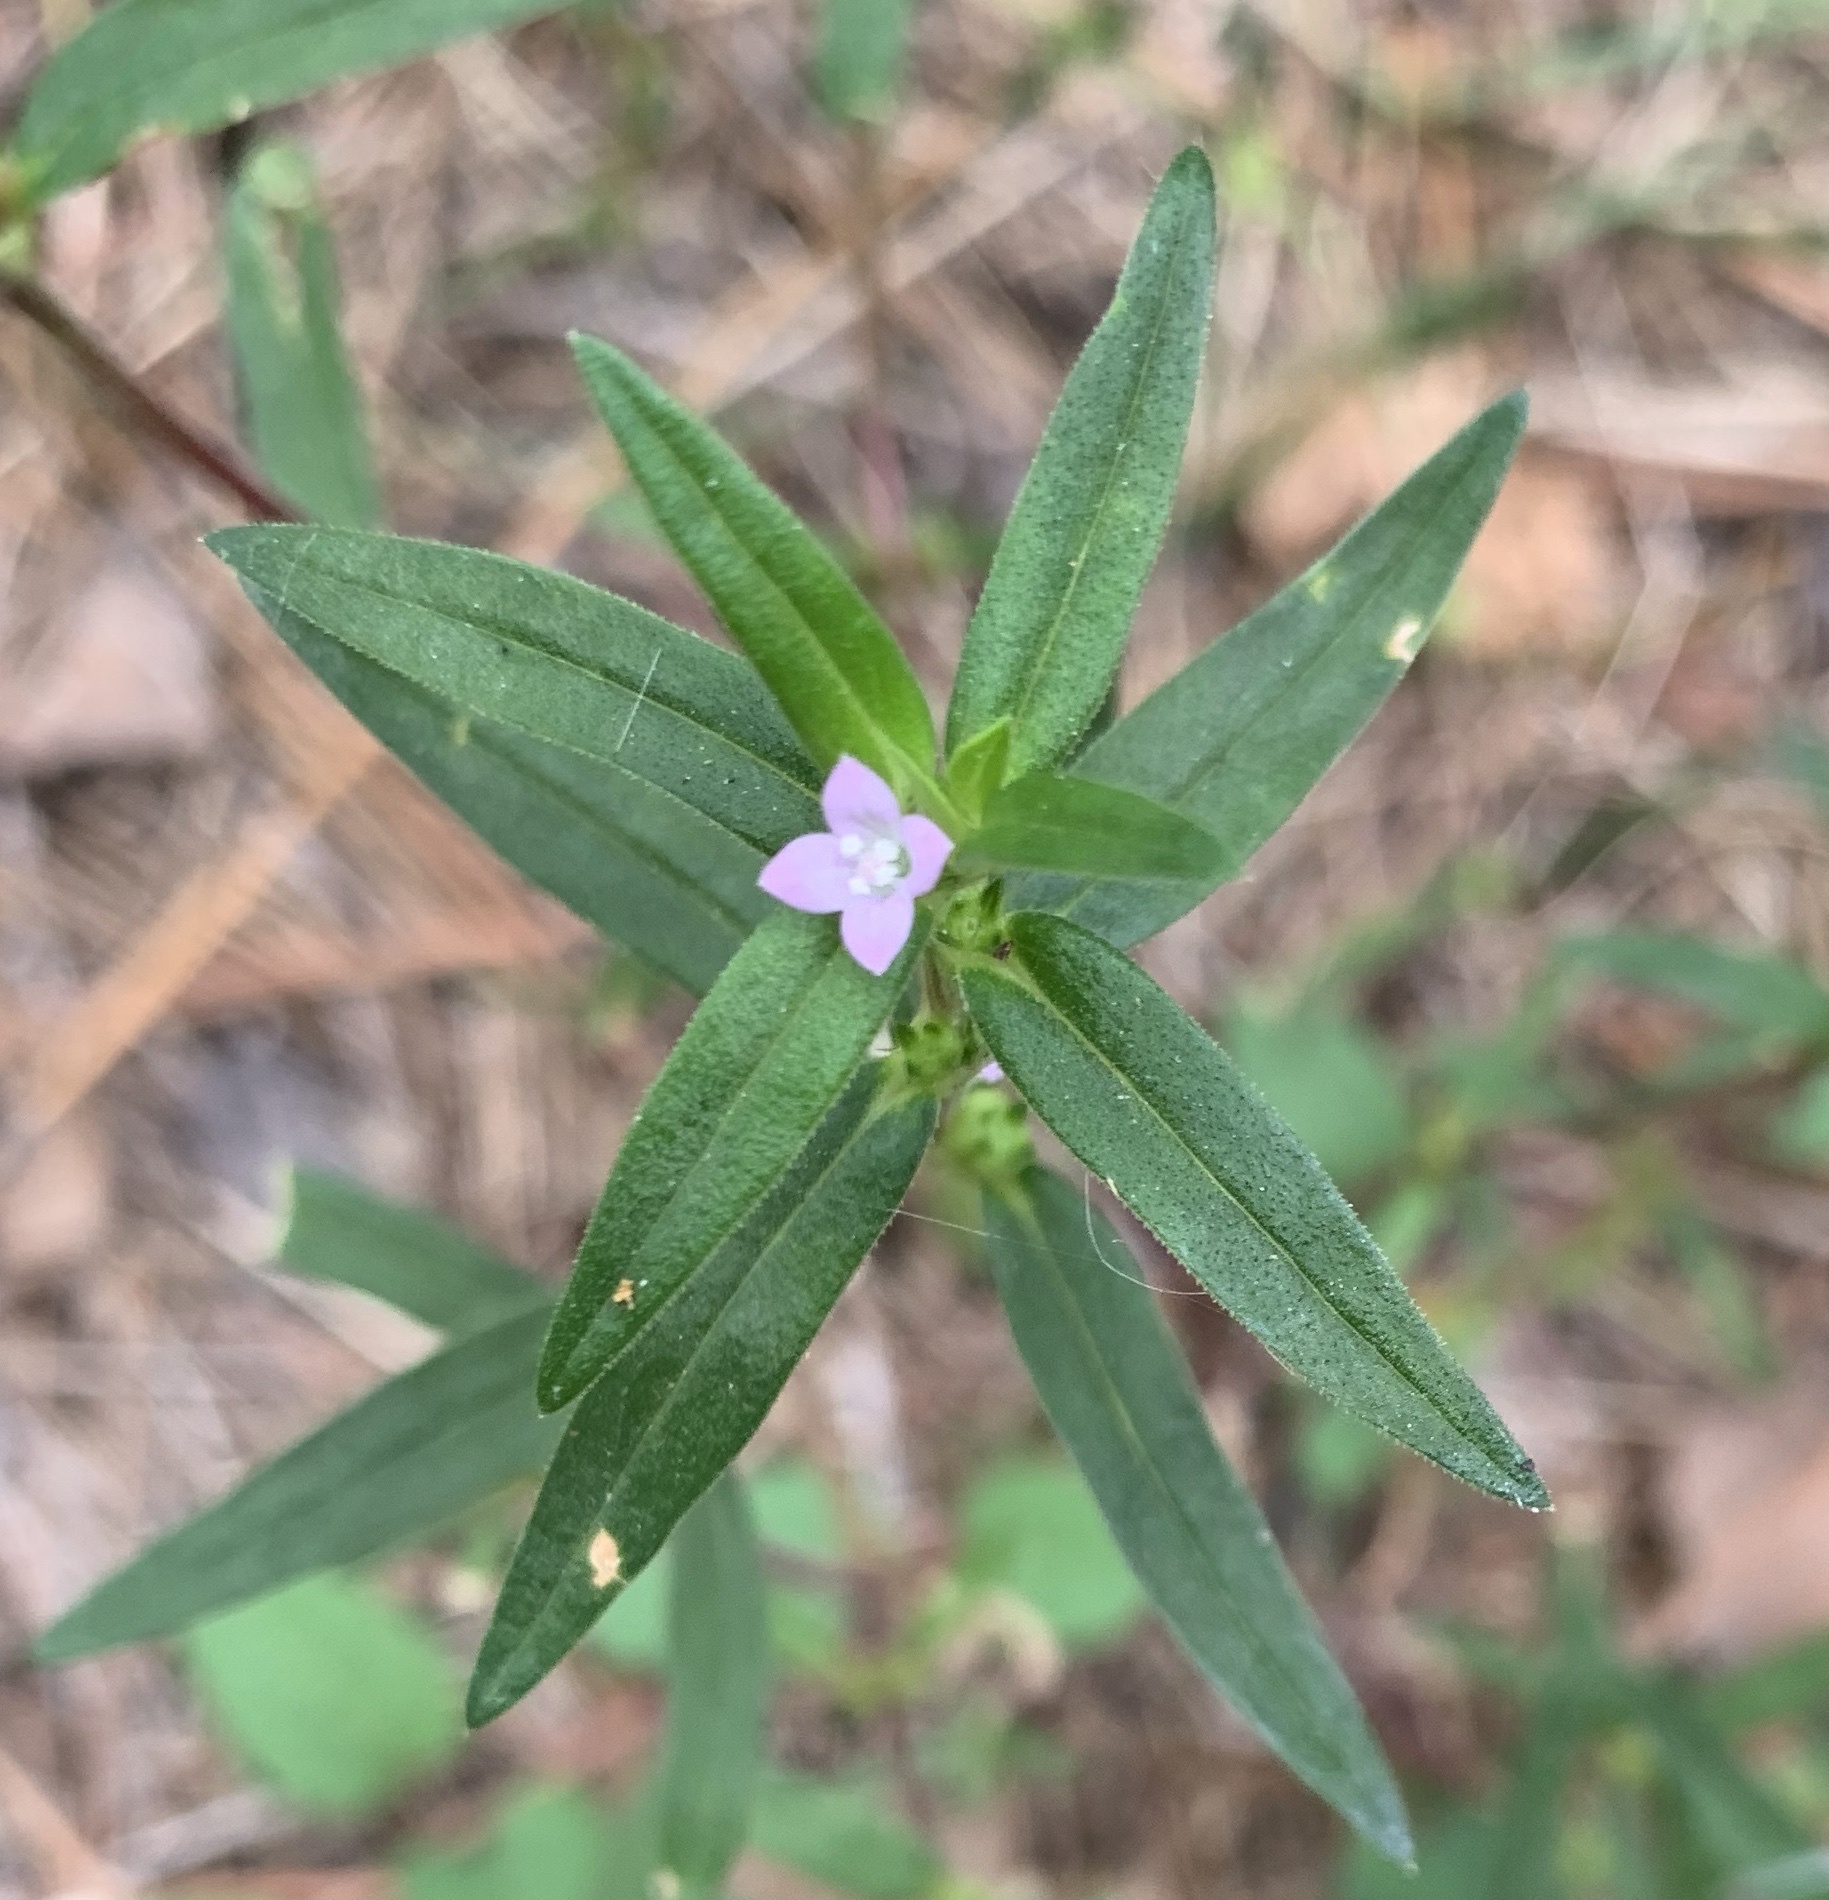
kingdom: Plantae
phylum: Tracheophyta
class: Magnoliopsida
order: Gentianales
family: Rubiaceae
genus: Hexasepalum
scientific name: Hexasepalum teres
